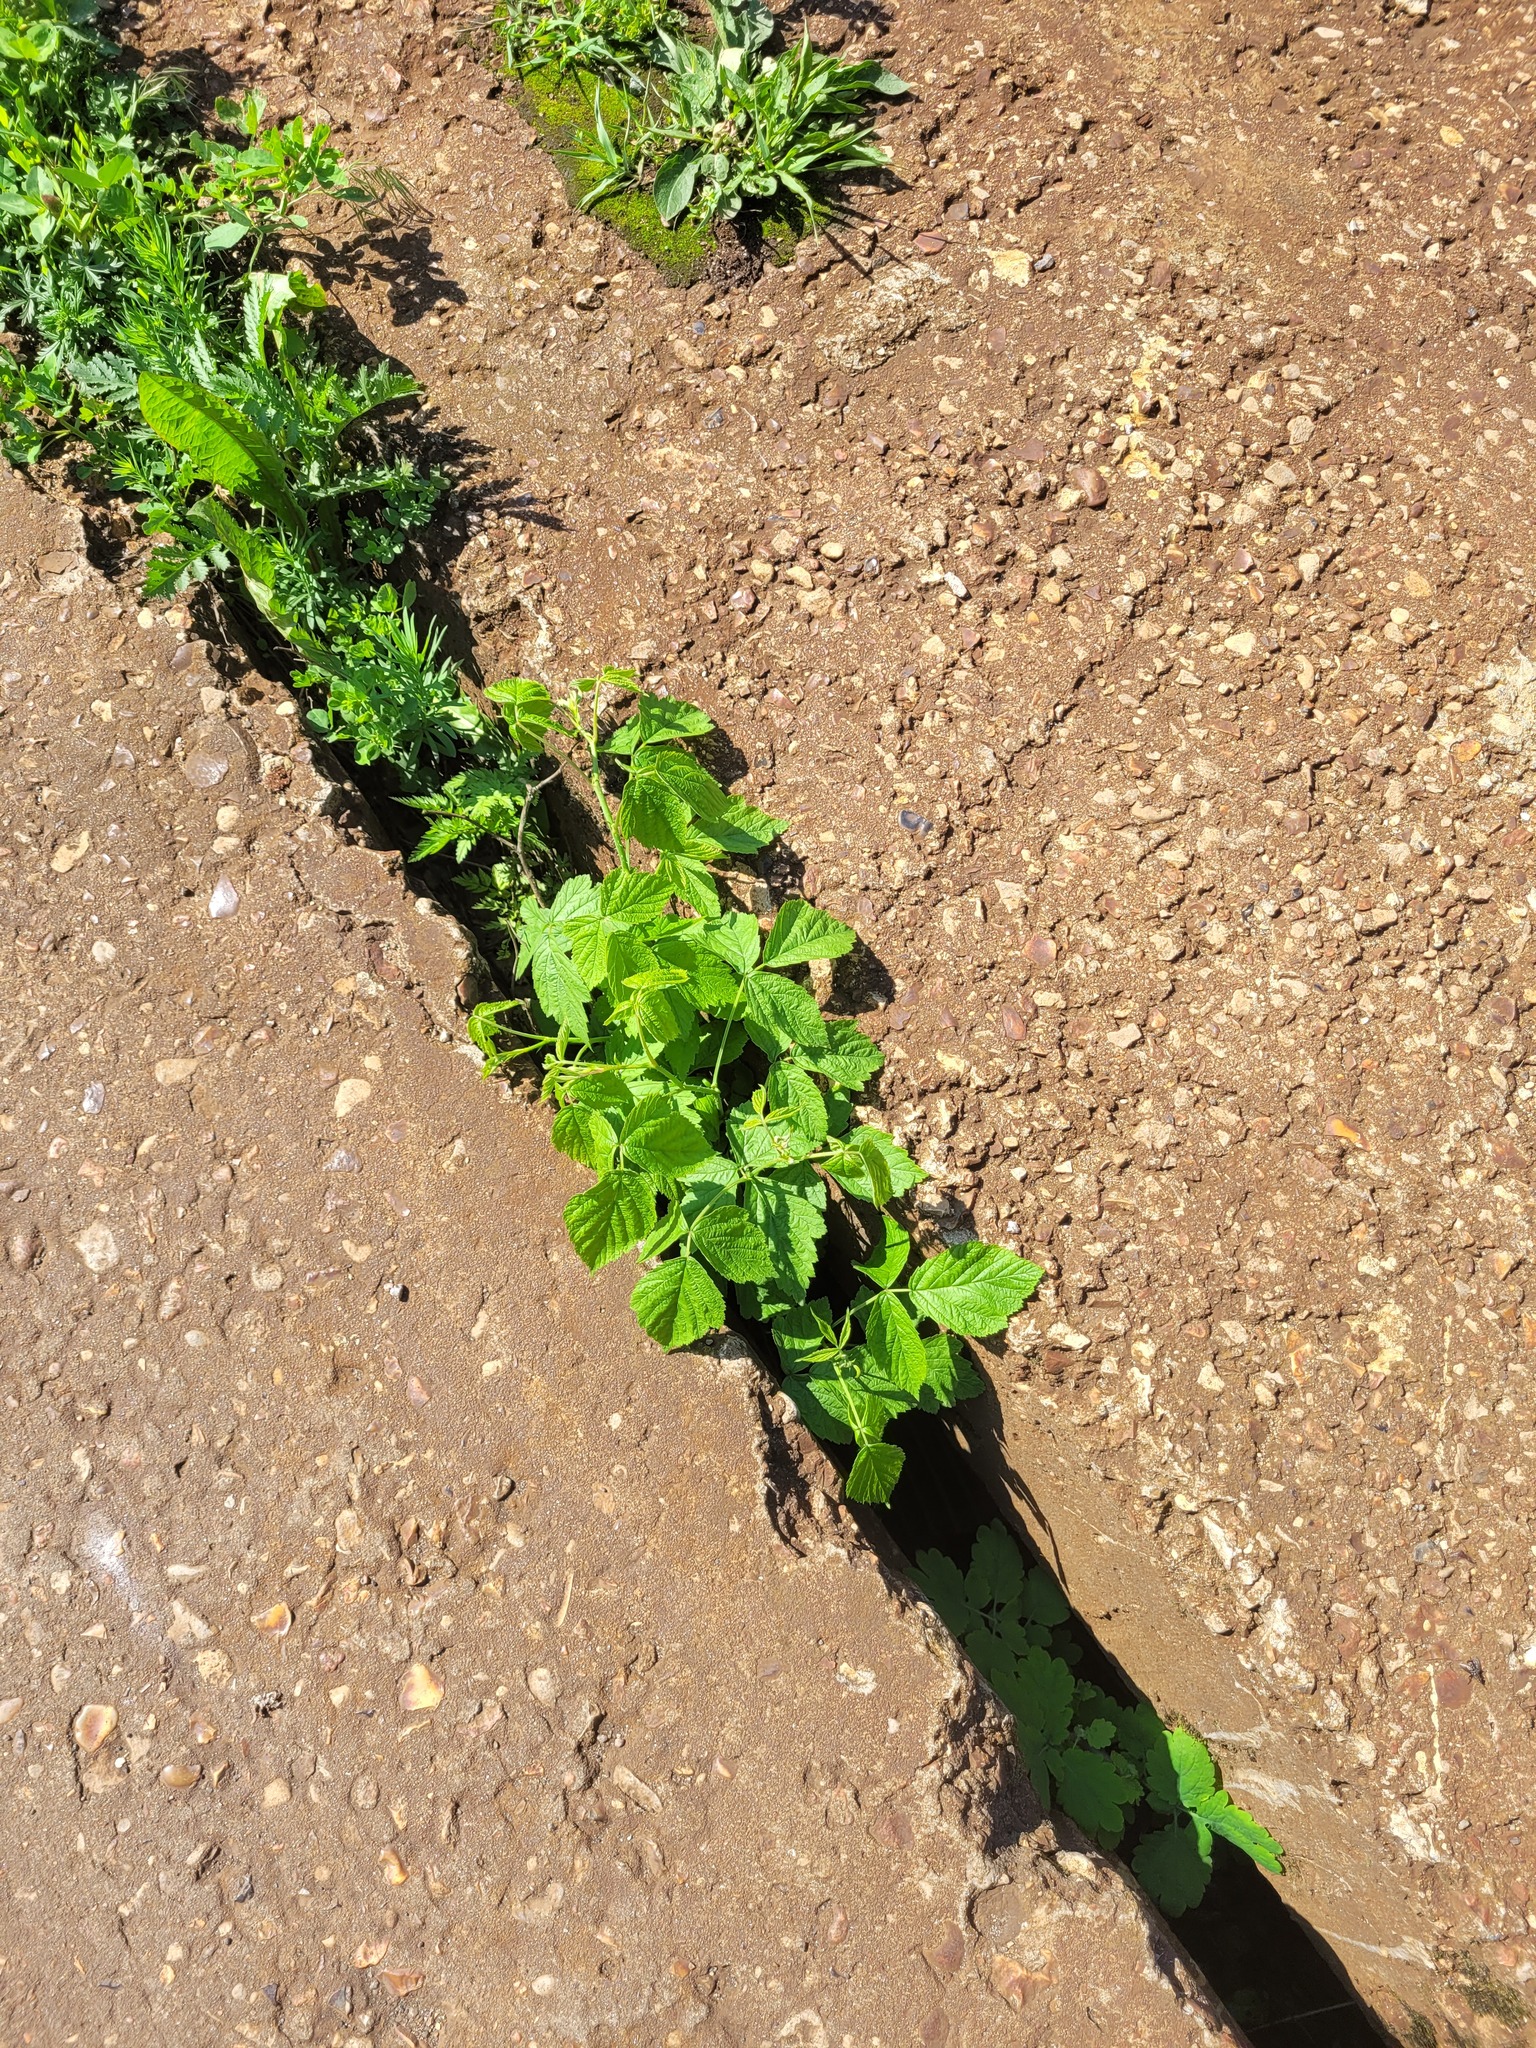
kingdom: Plantae
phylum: Tracheophyta
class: Magnoliopsida
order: Rosales
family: Rosaceae
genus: Rubus
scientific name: Rubus caesius
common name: Dewberry
